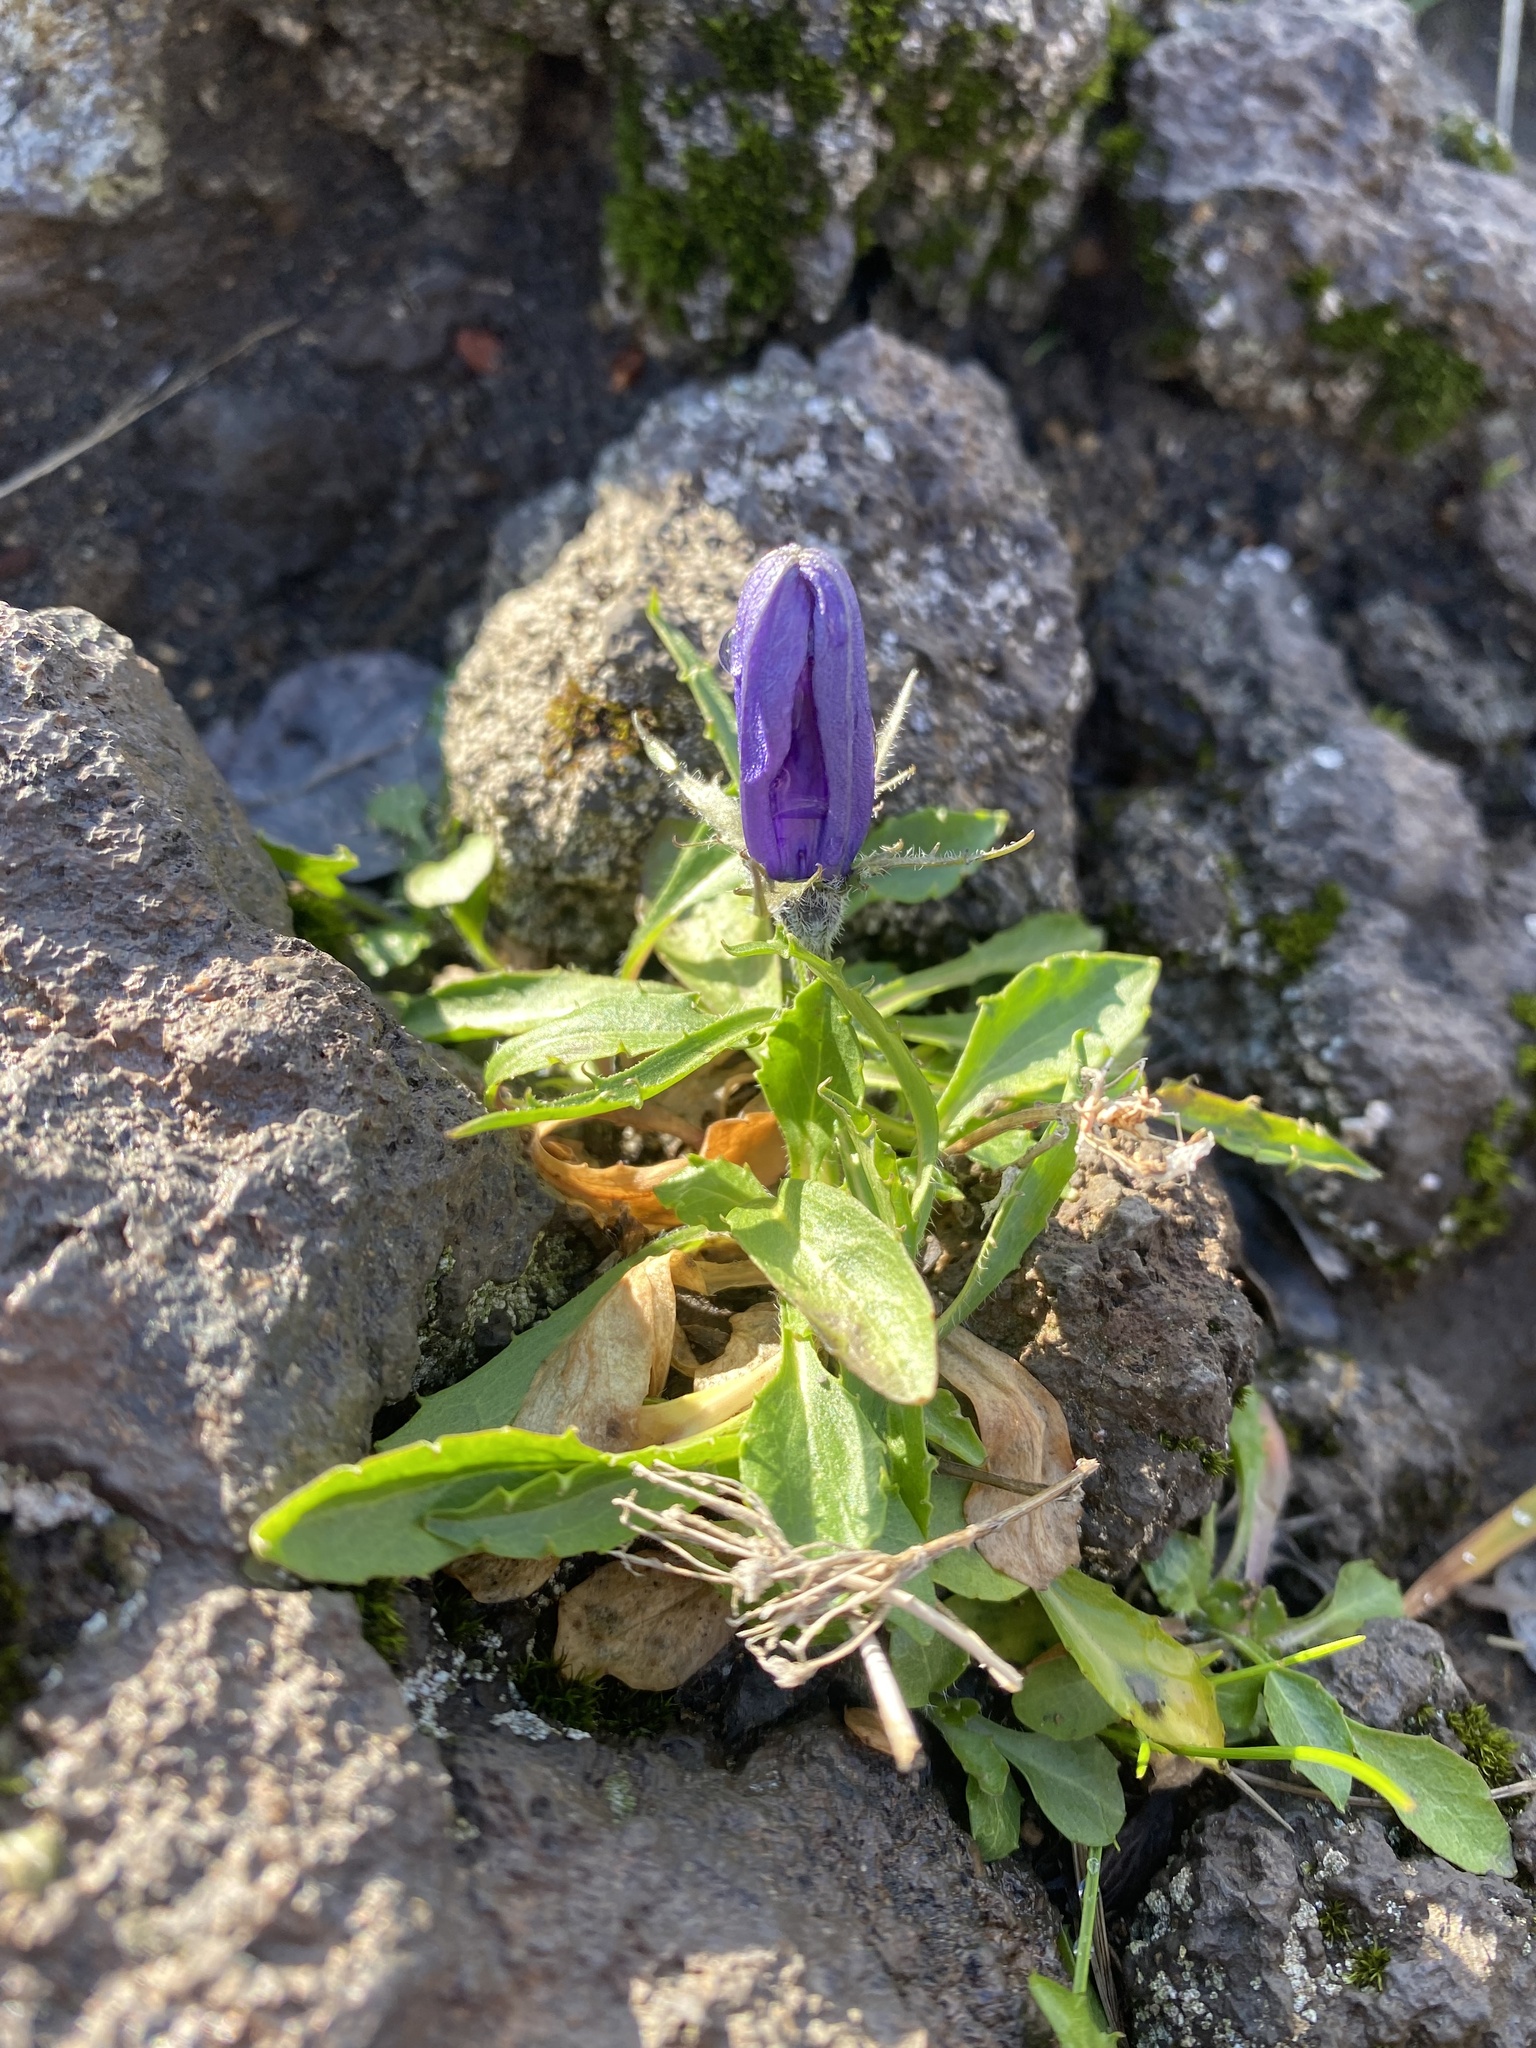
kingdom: Plantae
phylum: Tracheophyta
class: Magnoliopsida
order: Asterales
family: Campanulaceae
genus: Campanula
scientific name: Campanula lasiocarpa
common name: Mountain harebell
